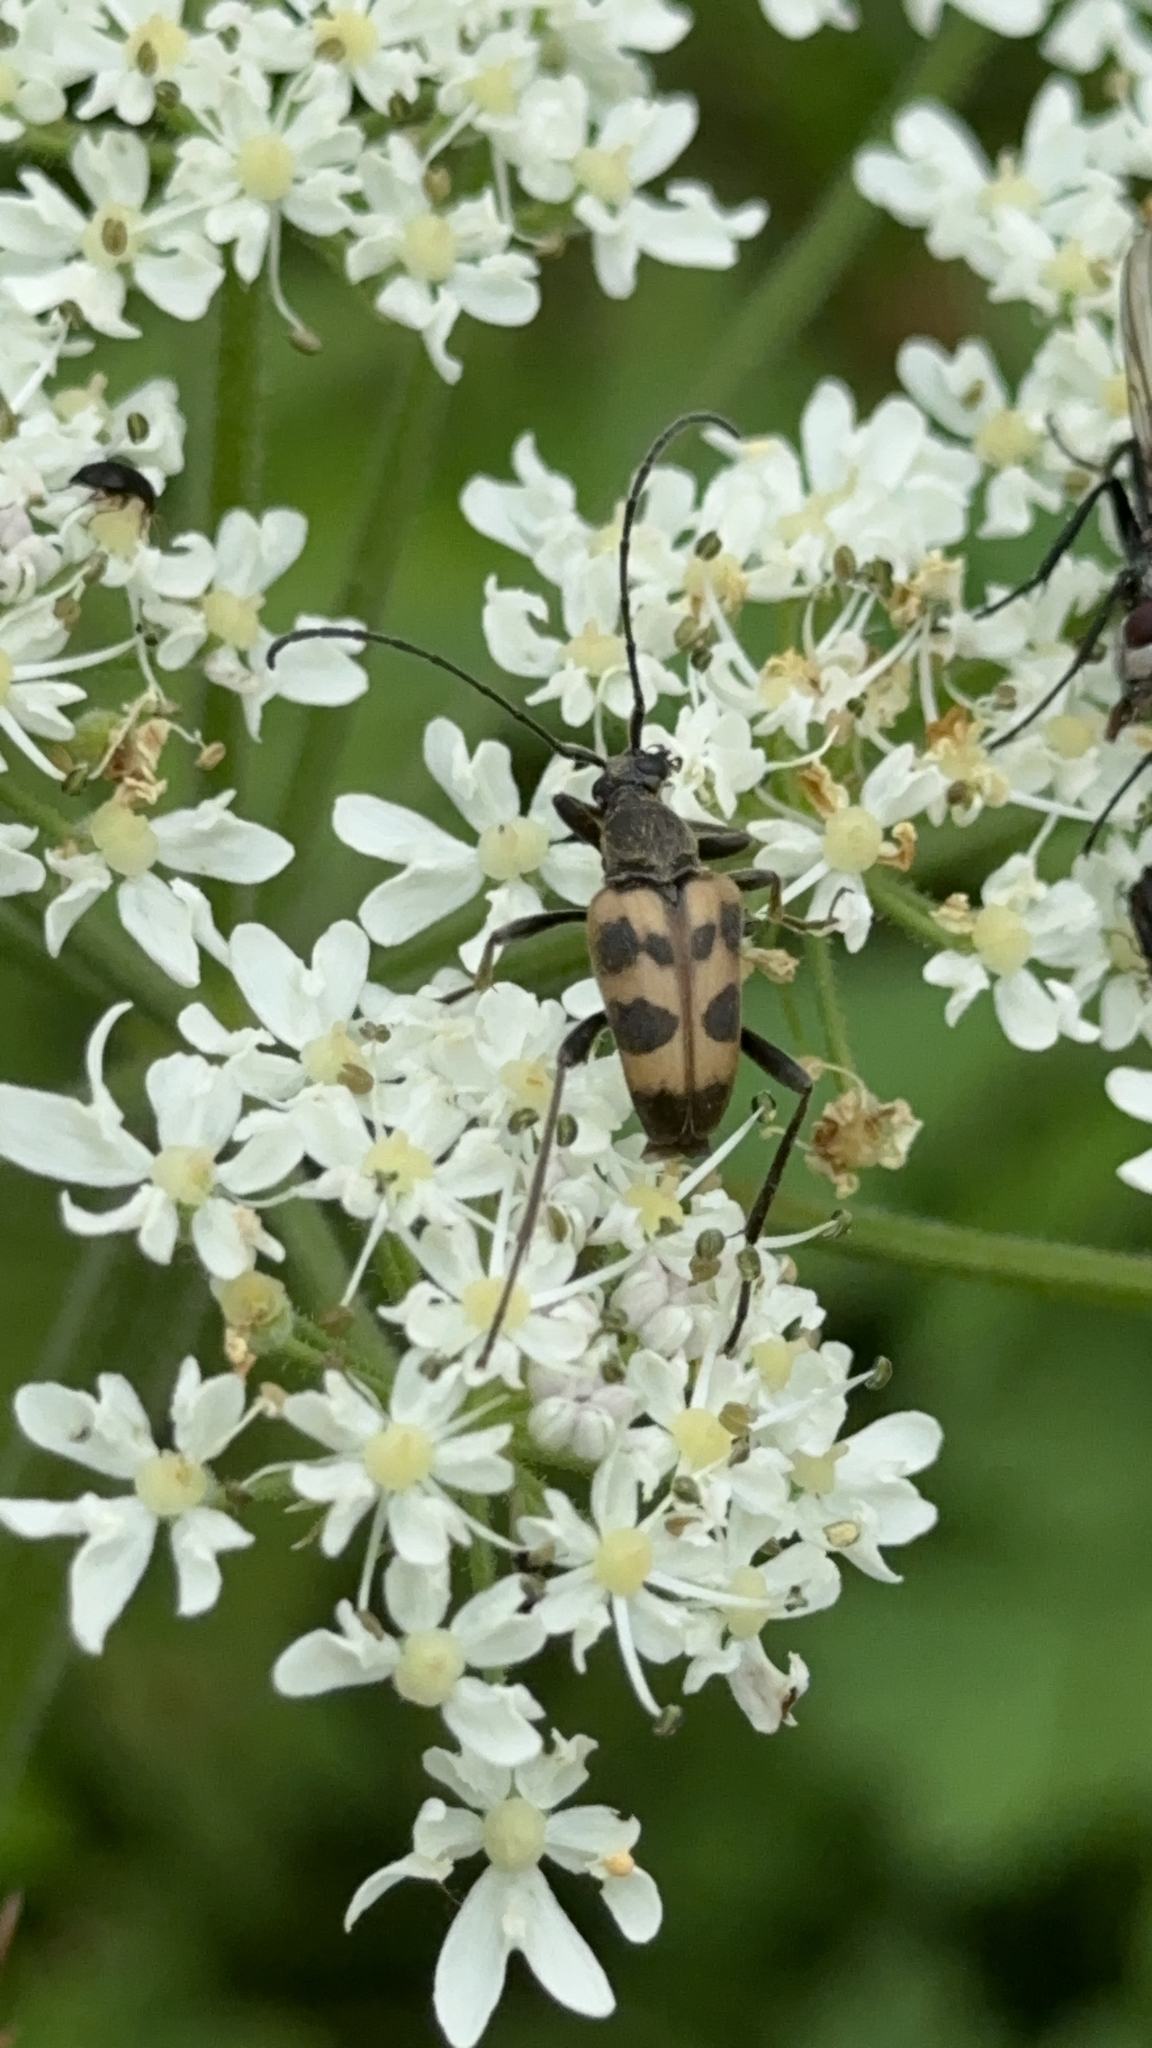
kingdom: Animalia
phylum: Arthropoda
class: Insecta
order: Coleoptera
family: Cerambycidae
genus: Pachytodes
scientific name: Pachytodes cerambyciformis
